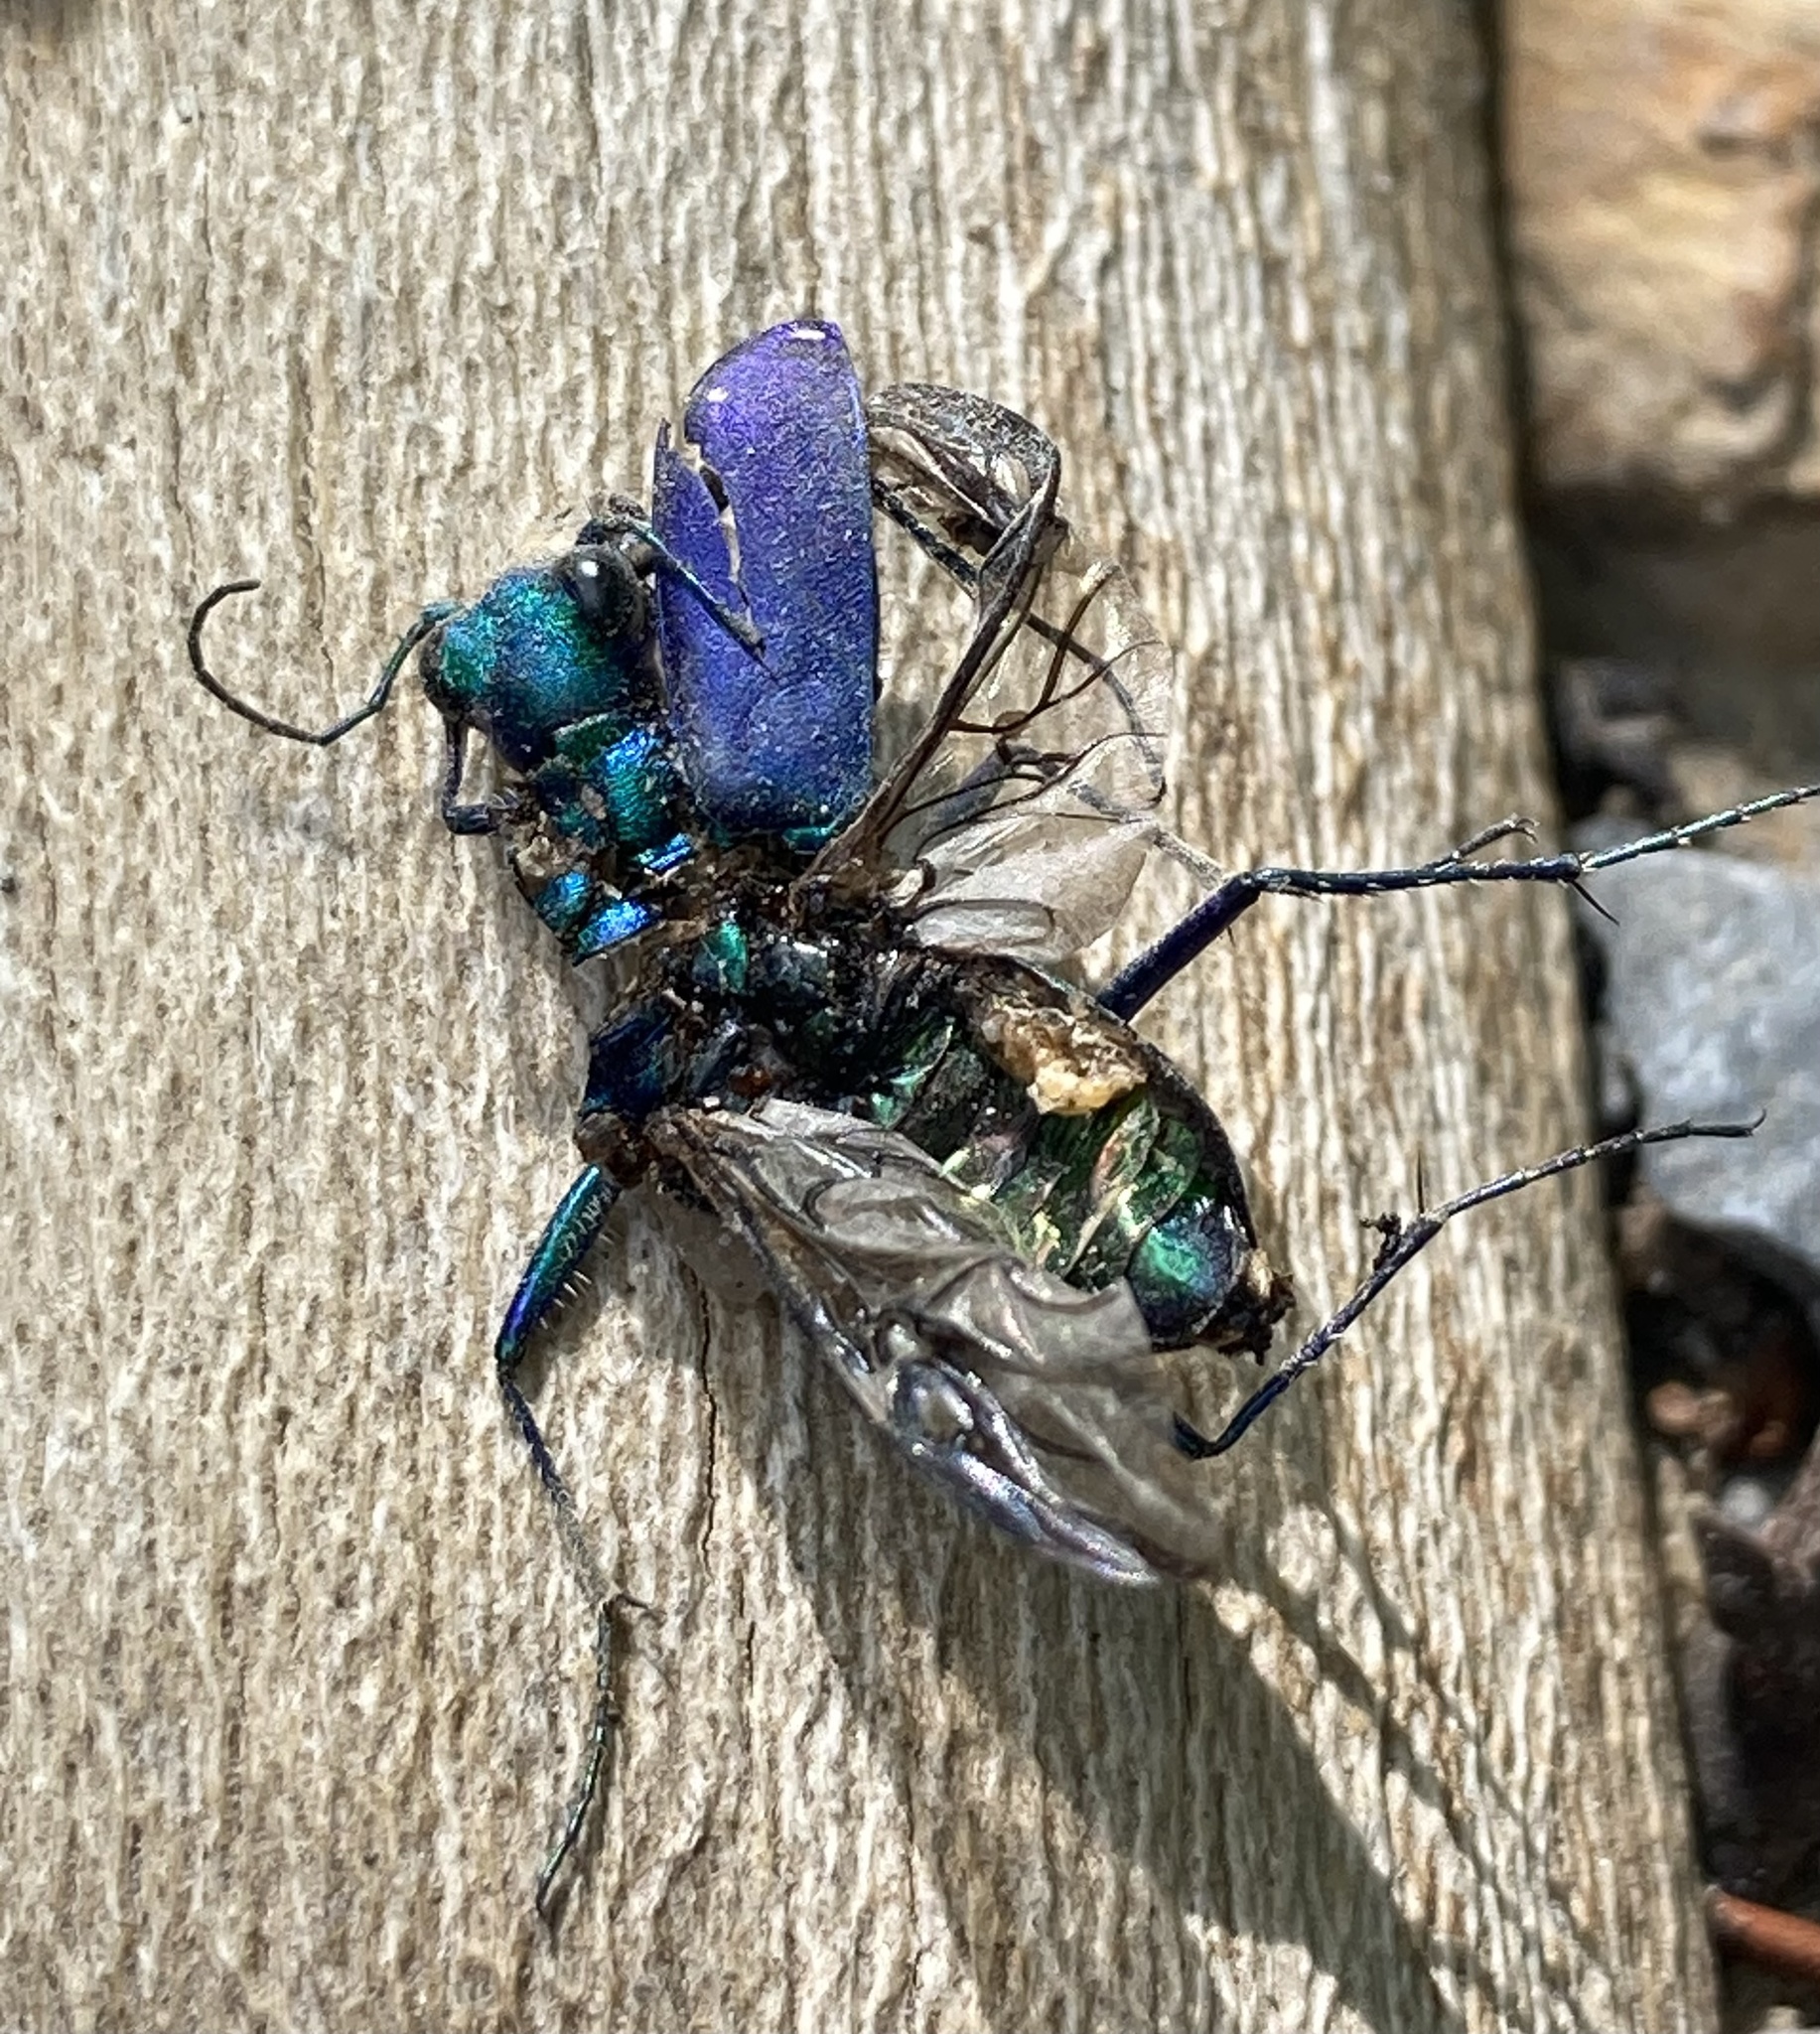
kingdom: Animalia
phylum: Arthropoda
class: Insecta
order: Coleoptera
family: Carabidae
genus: Cicindela
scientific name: Cicindela sexguttata
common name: Six-spotted tiger beetle
